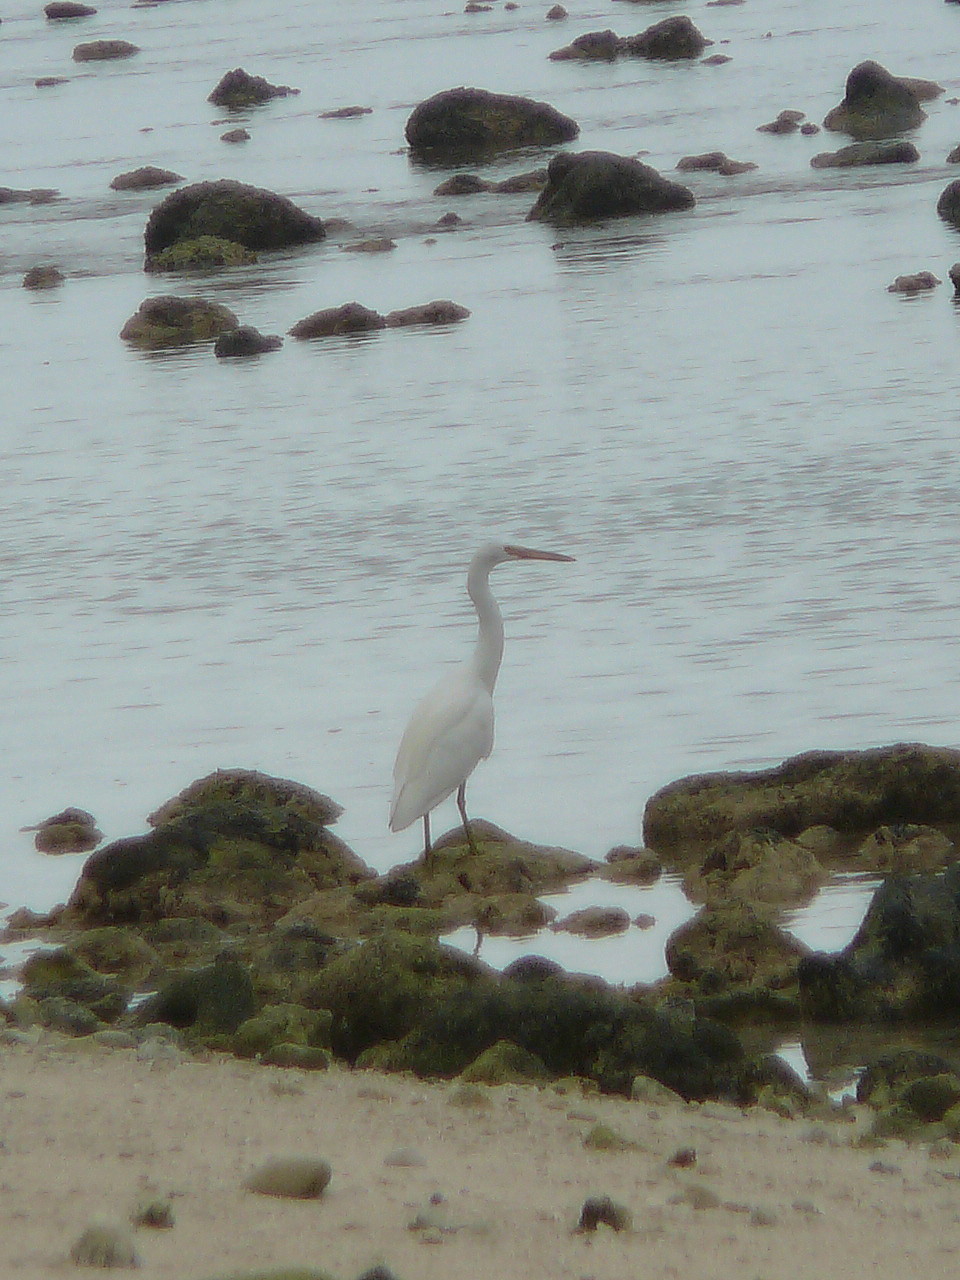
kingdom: Animalia
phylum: Chordata
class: Aves
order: Pelecaniformes
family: Ardeidae
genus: Egretta
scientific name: Egretta sacra
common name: Pacific reef heron
